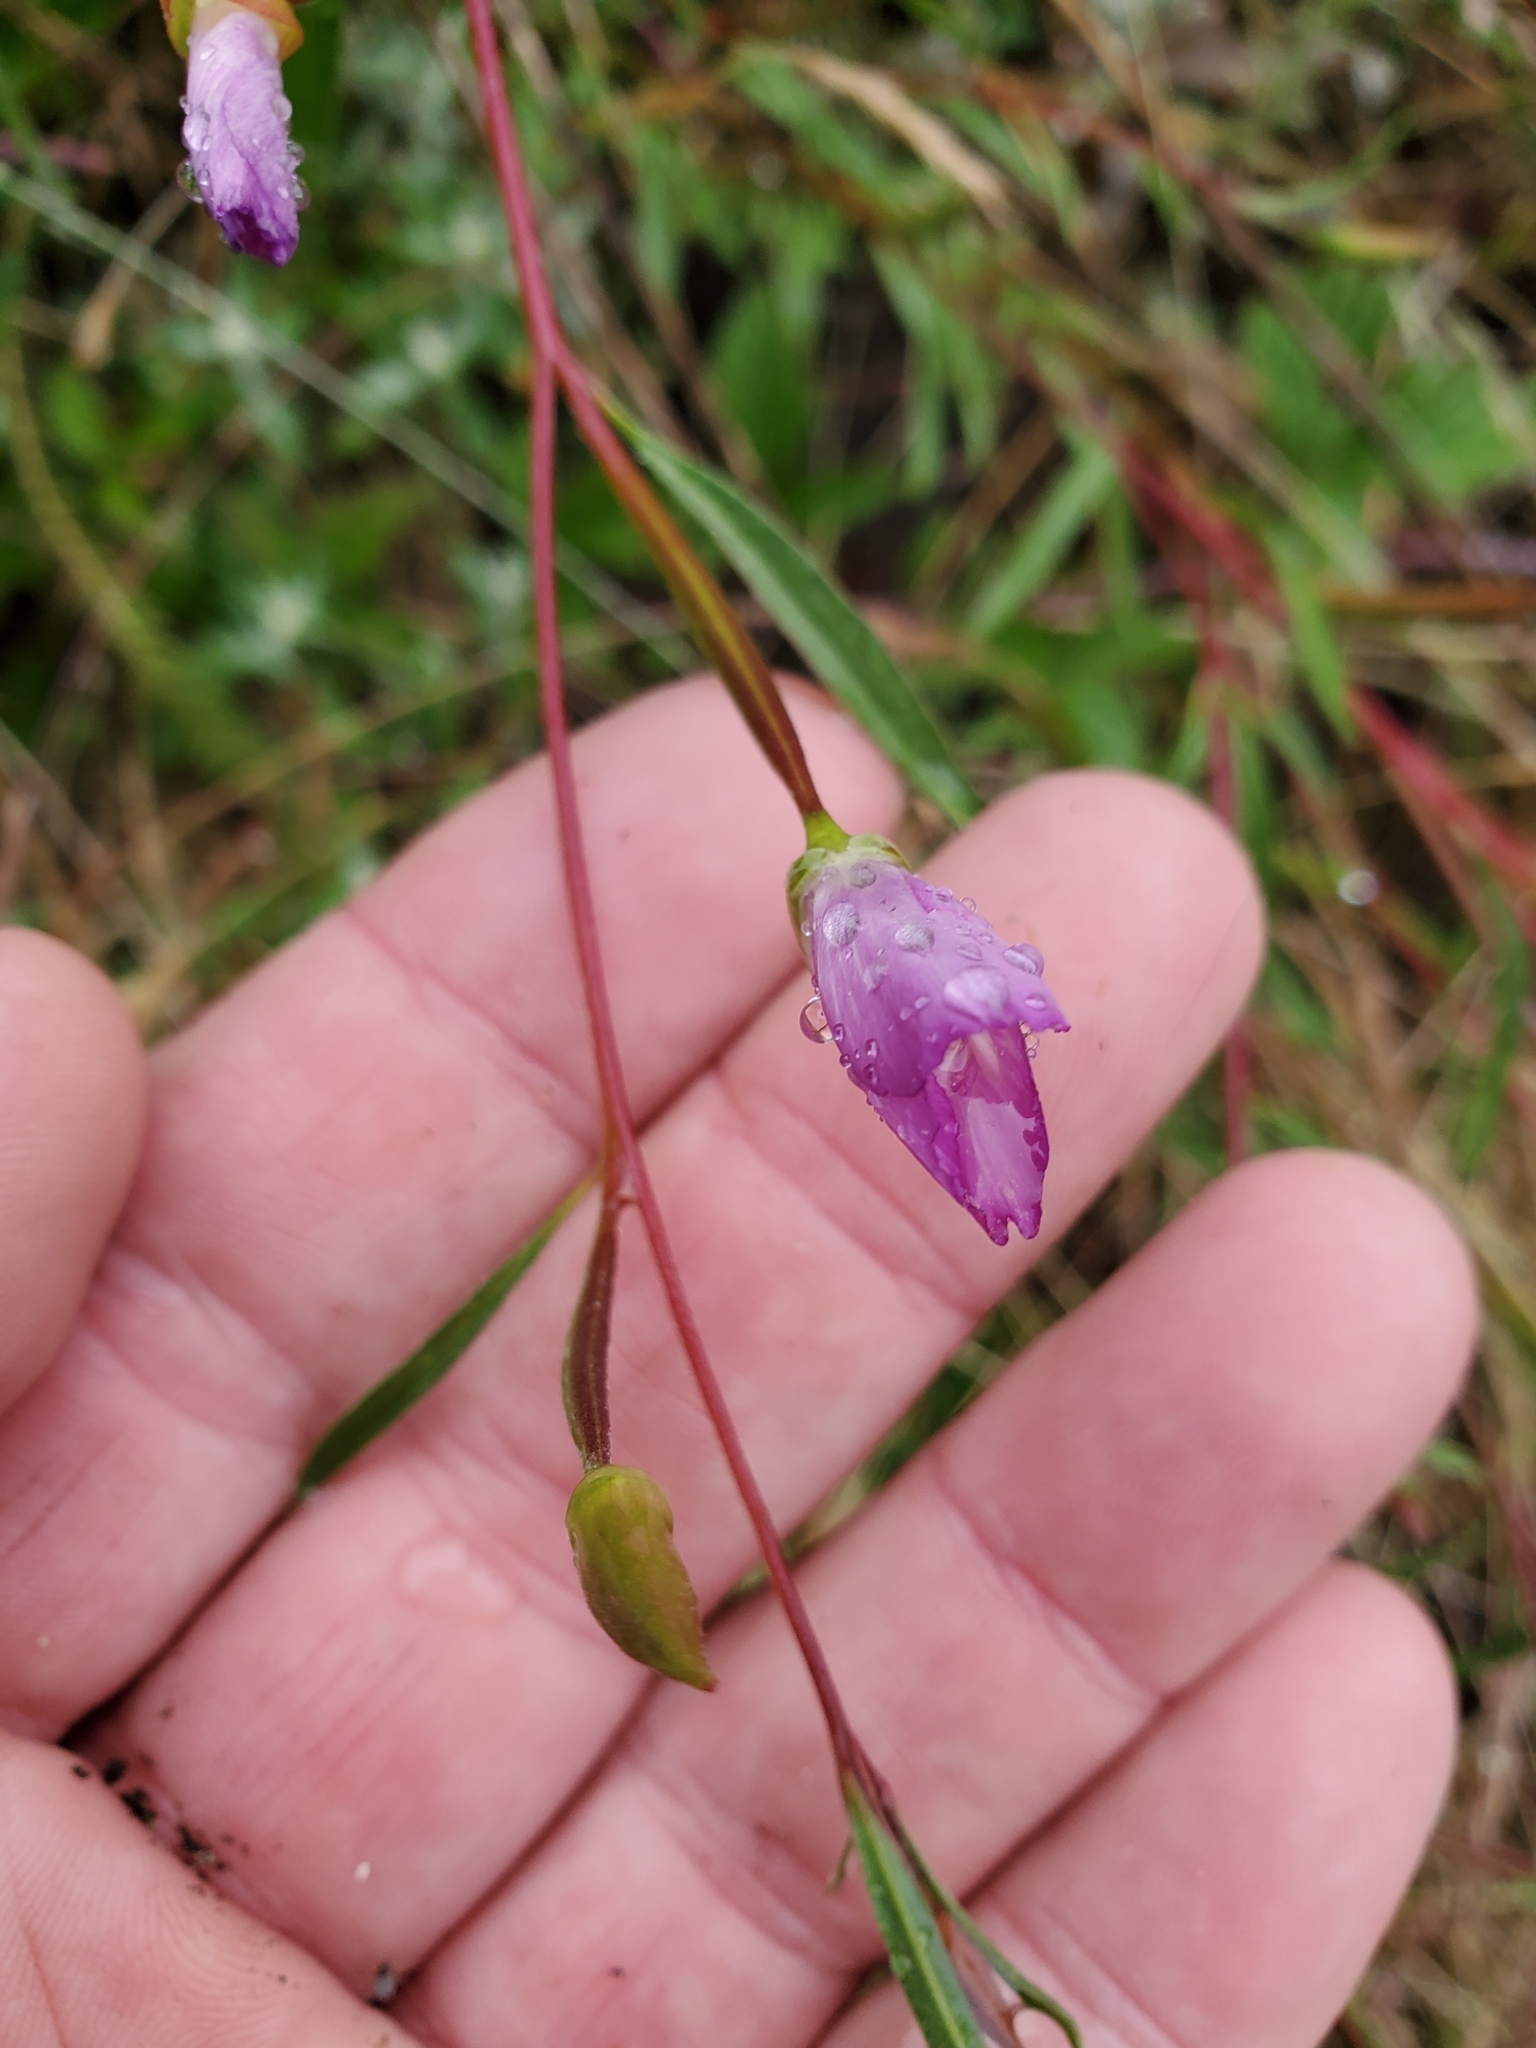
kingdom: Plantae
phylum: Tracheophyta
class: Magnoliopsida
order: Myrtales
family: Onagraceae
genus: Clarkia
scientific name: Clarkia amoena
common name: Godetia
